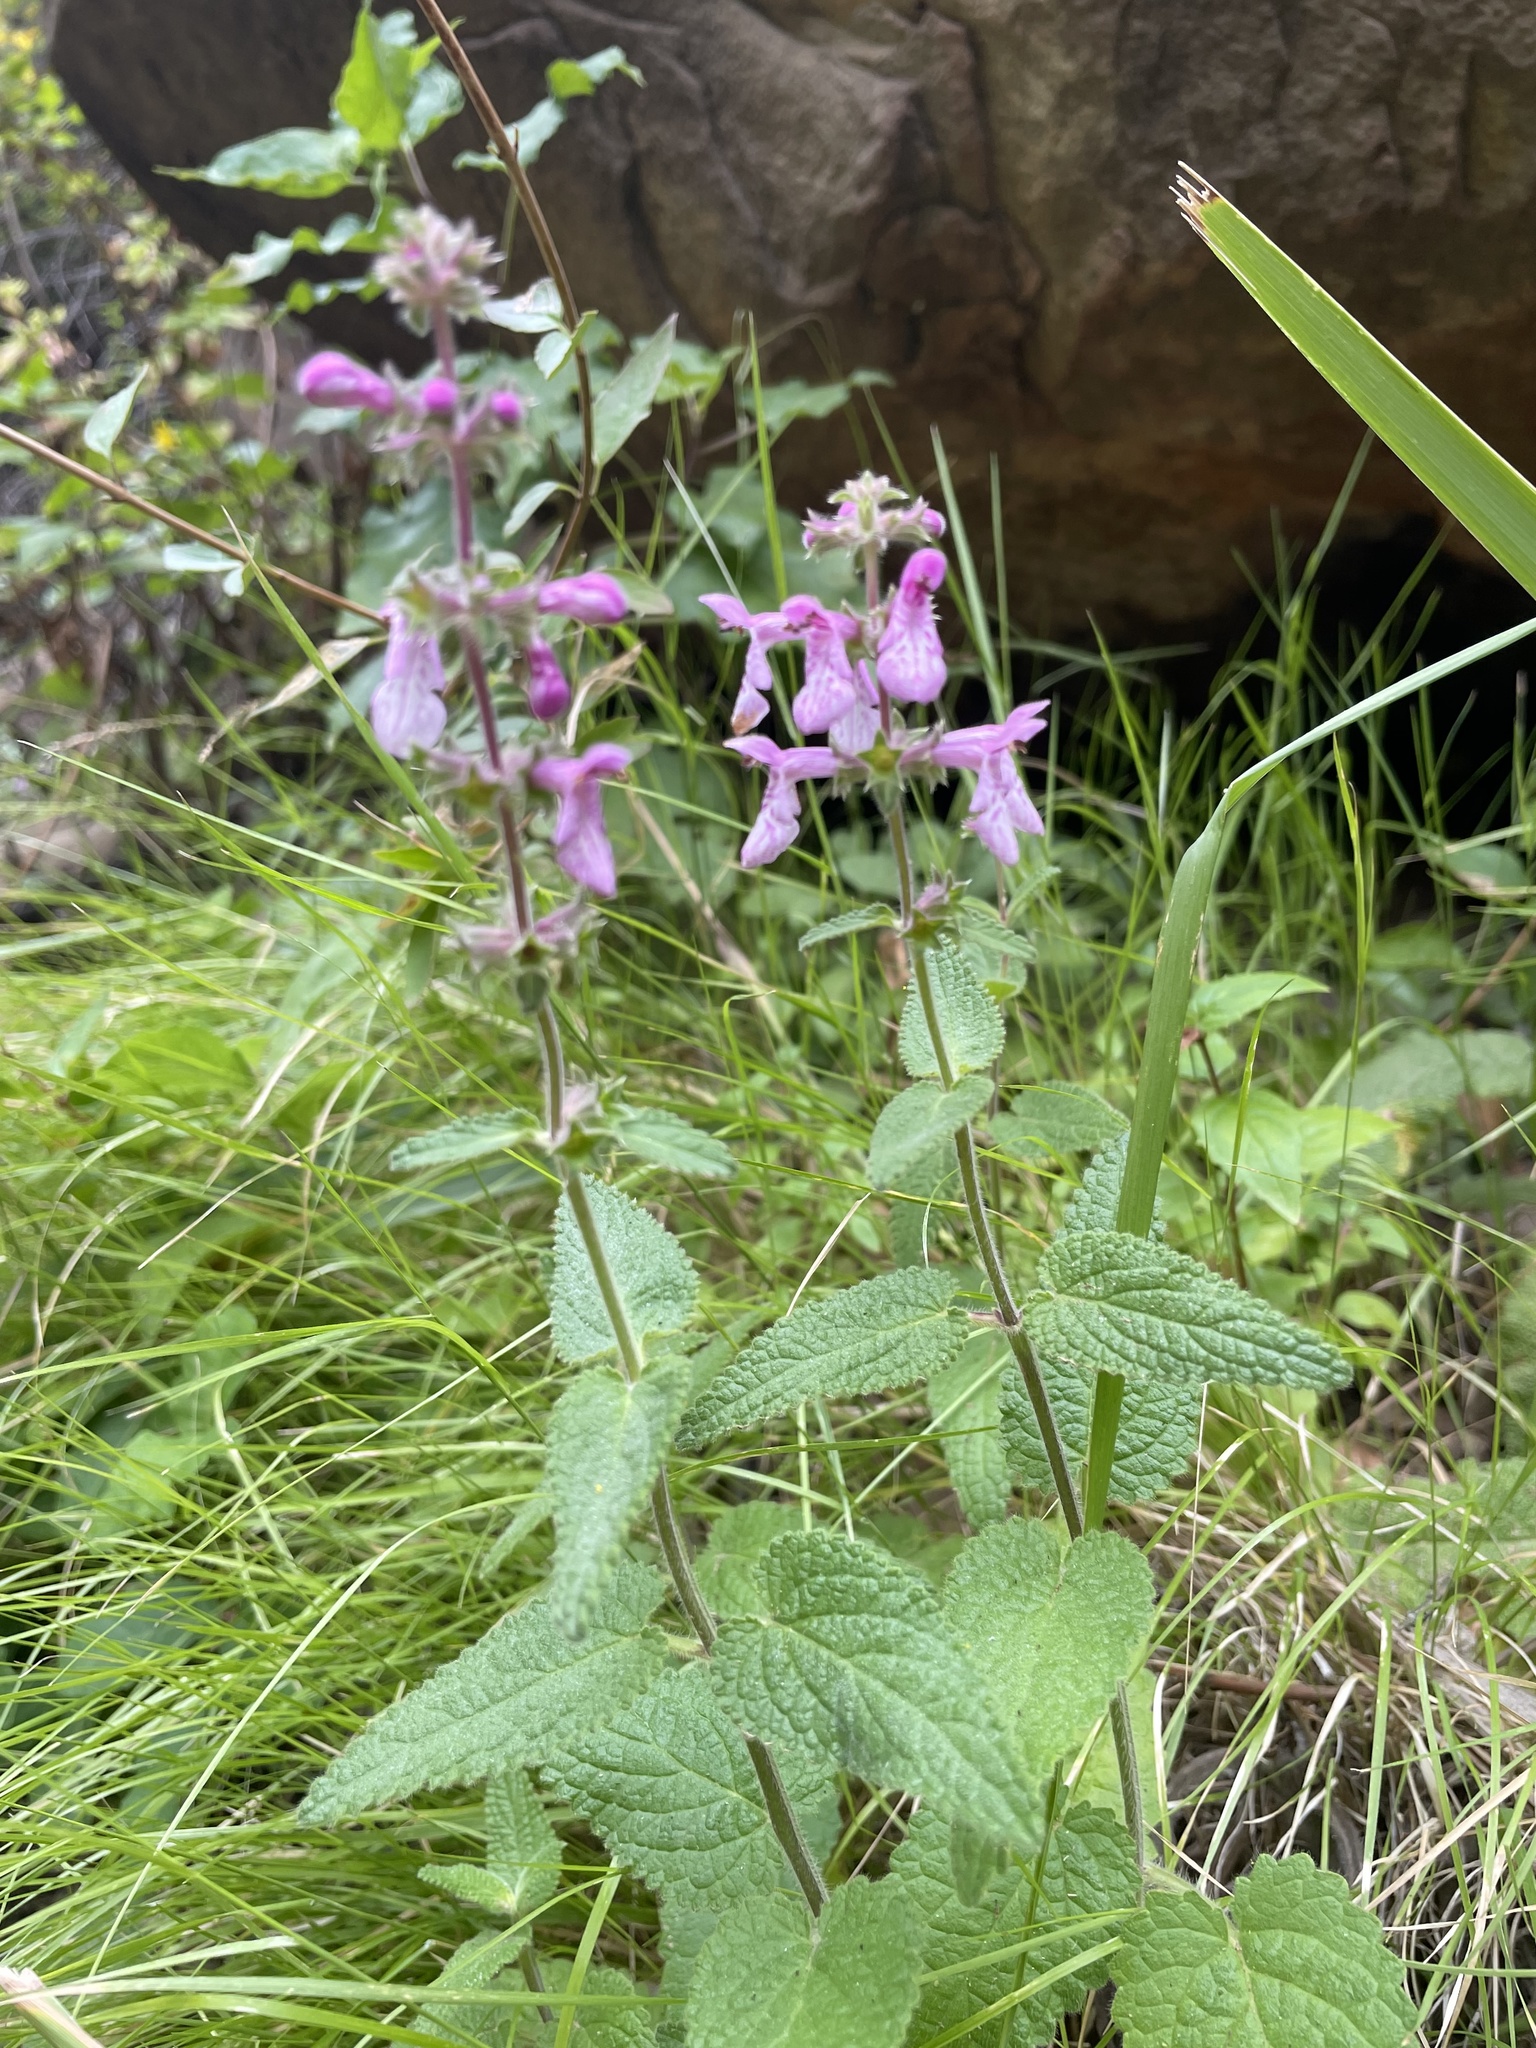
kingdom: Plantae
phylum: Tracheophyta
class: Magnoliopsida
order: Lamiales
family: Lamiaceae
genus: Stachys
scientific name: Stachys bullata
